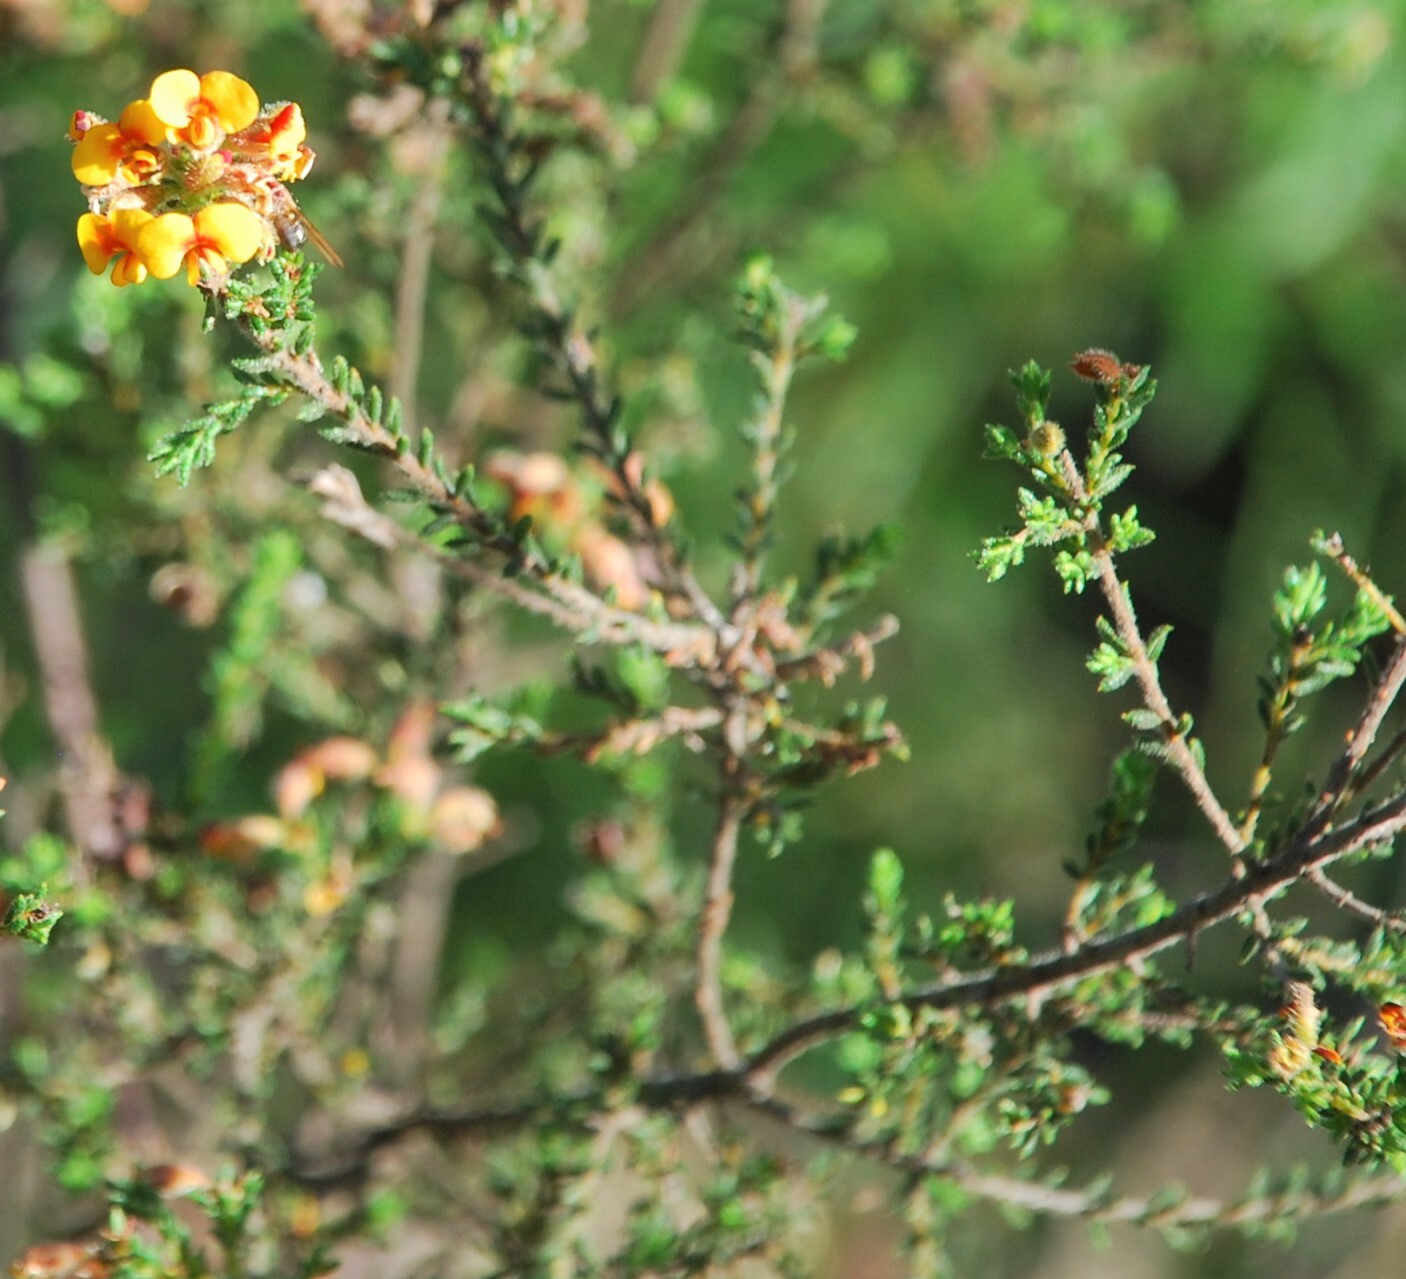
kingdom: Plantae
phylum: Tracheophyta
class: Magnoliopsida
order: Fabales
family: Fabaceae
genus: Dillwynia
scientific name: Dillwynia phylicoides
